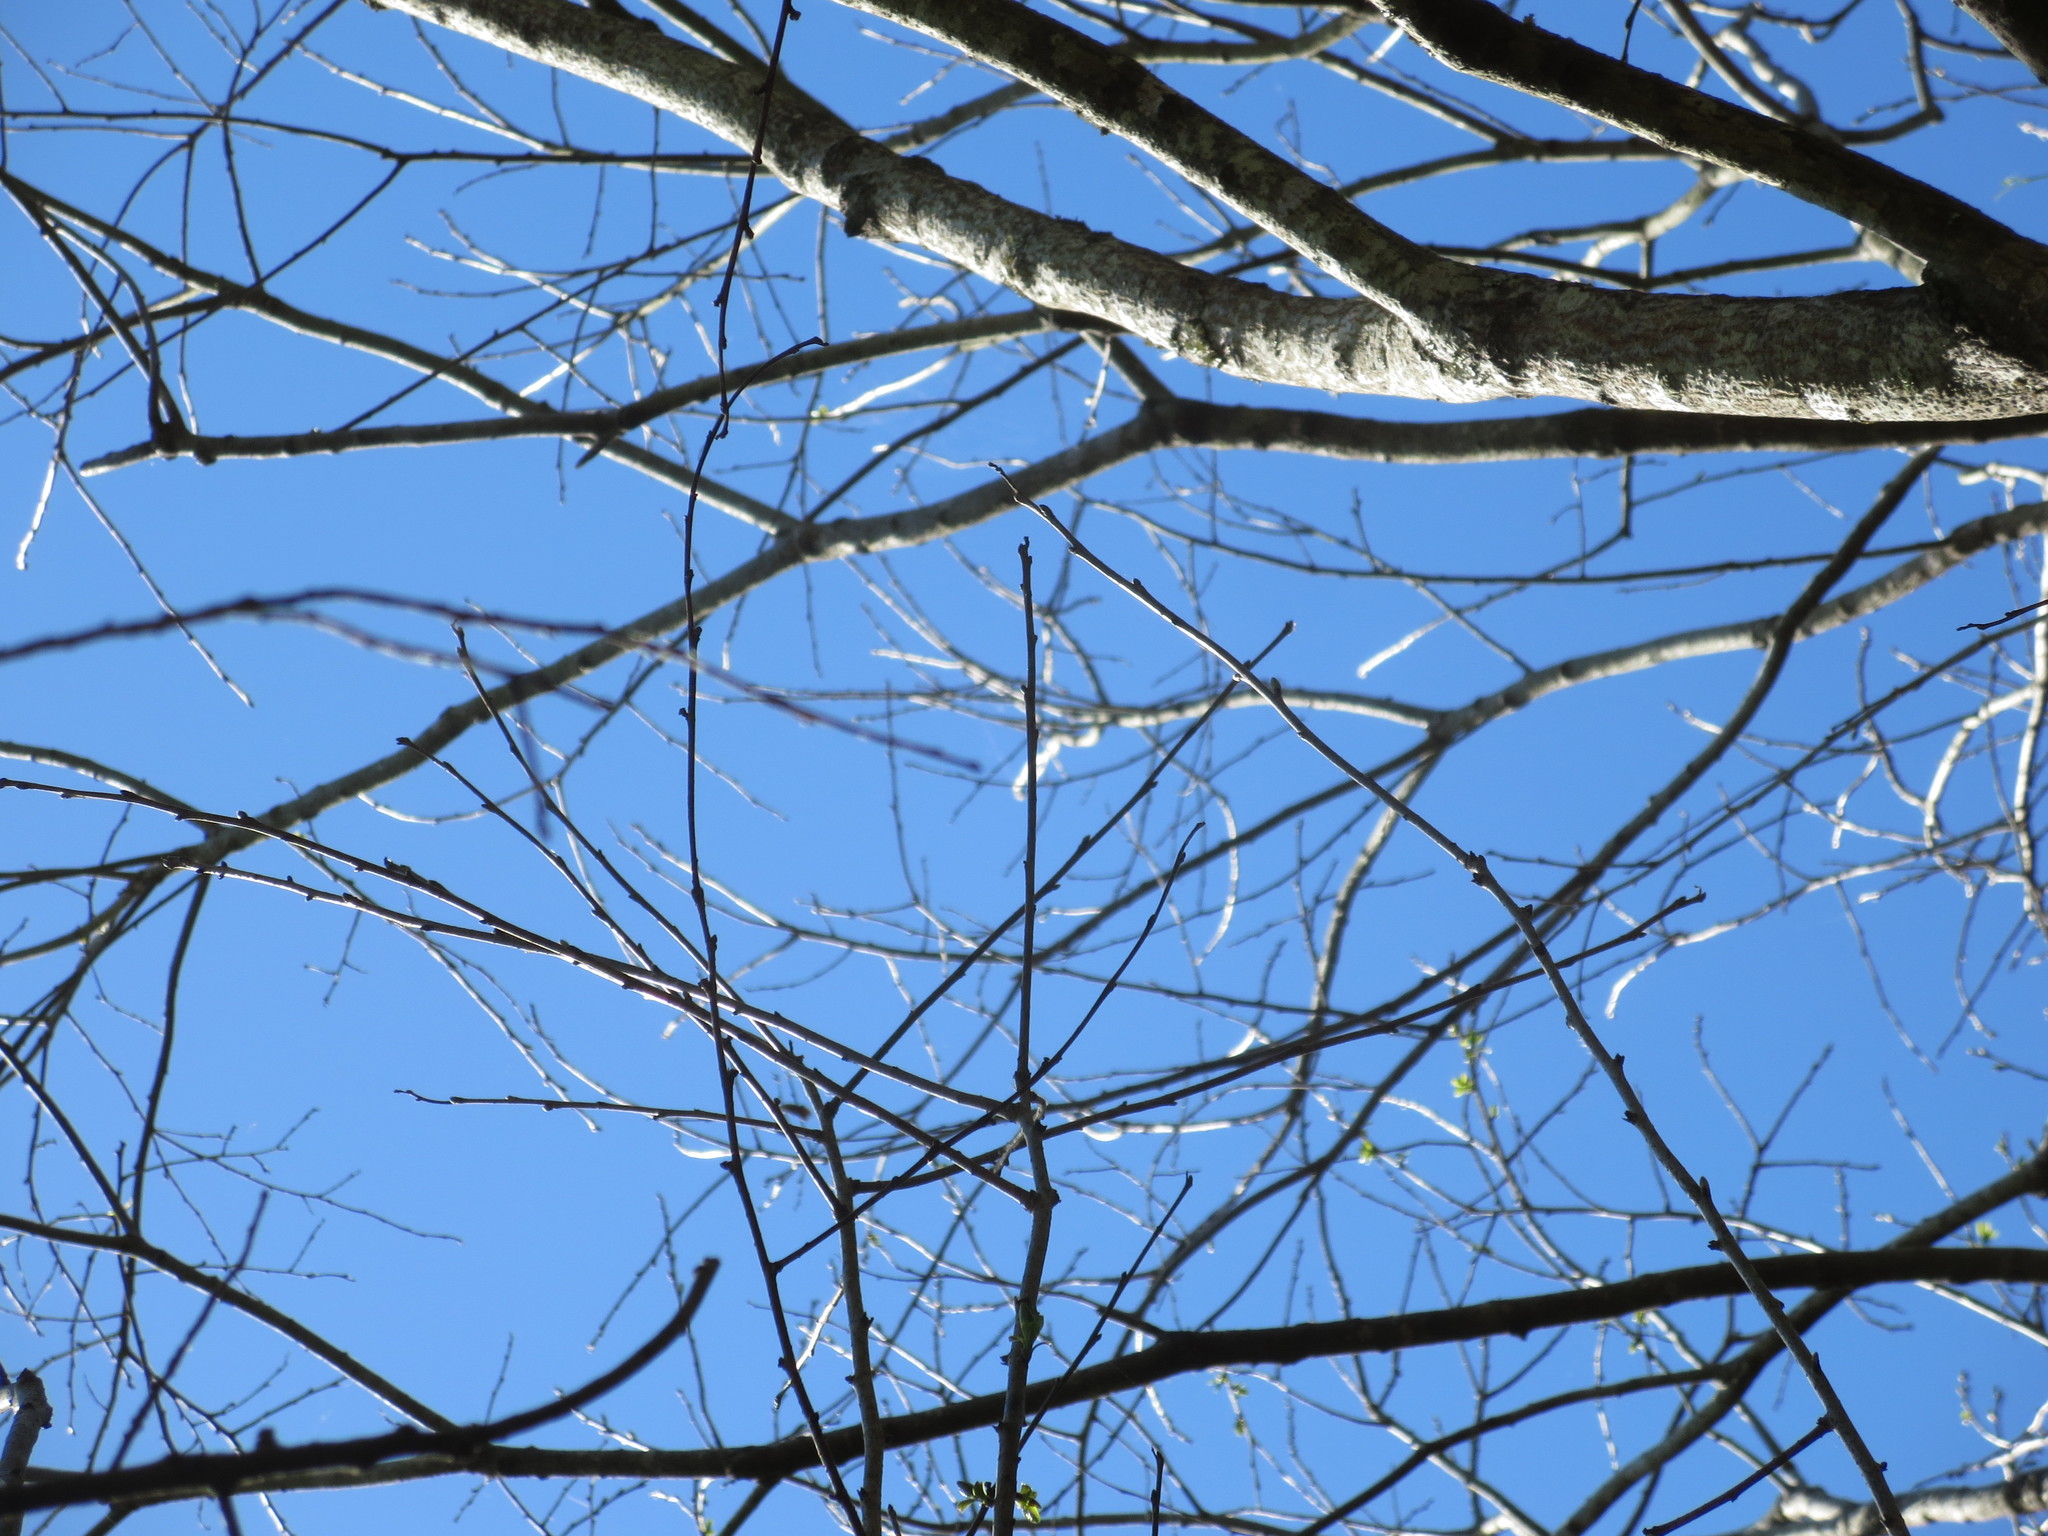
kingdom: Plantae
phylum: Tracheophyta
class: Magnoliopsida
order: Ericales
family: Ebenaceae
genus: Diospyros
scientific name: Diospyros virginiana
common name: Persimmon
